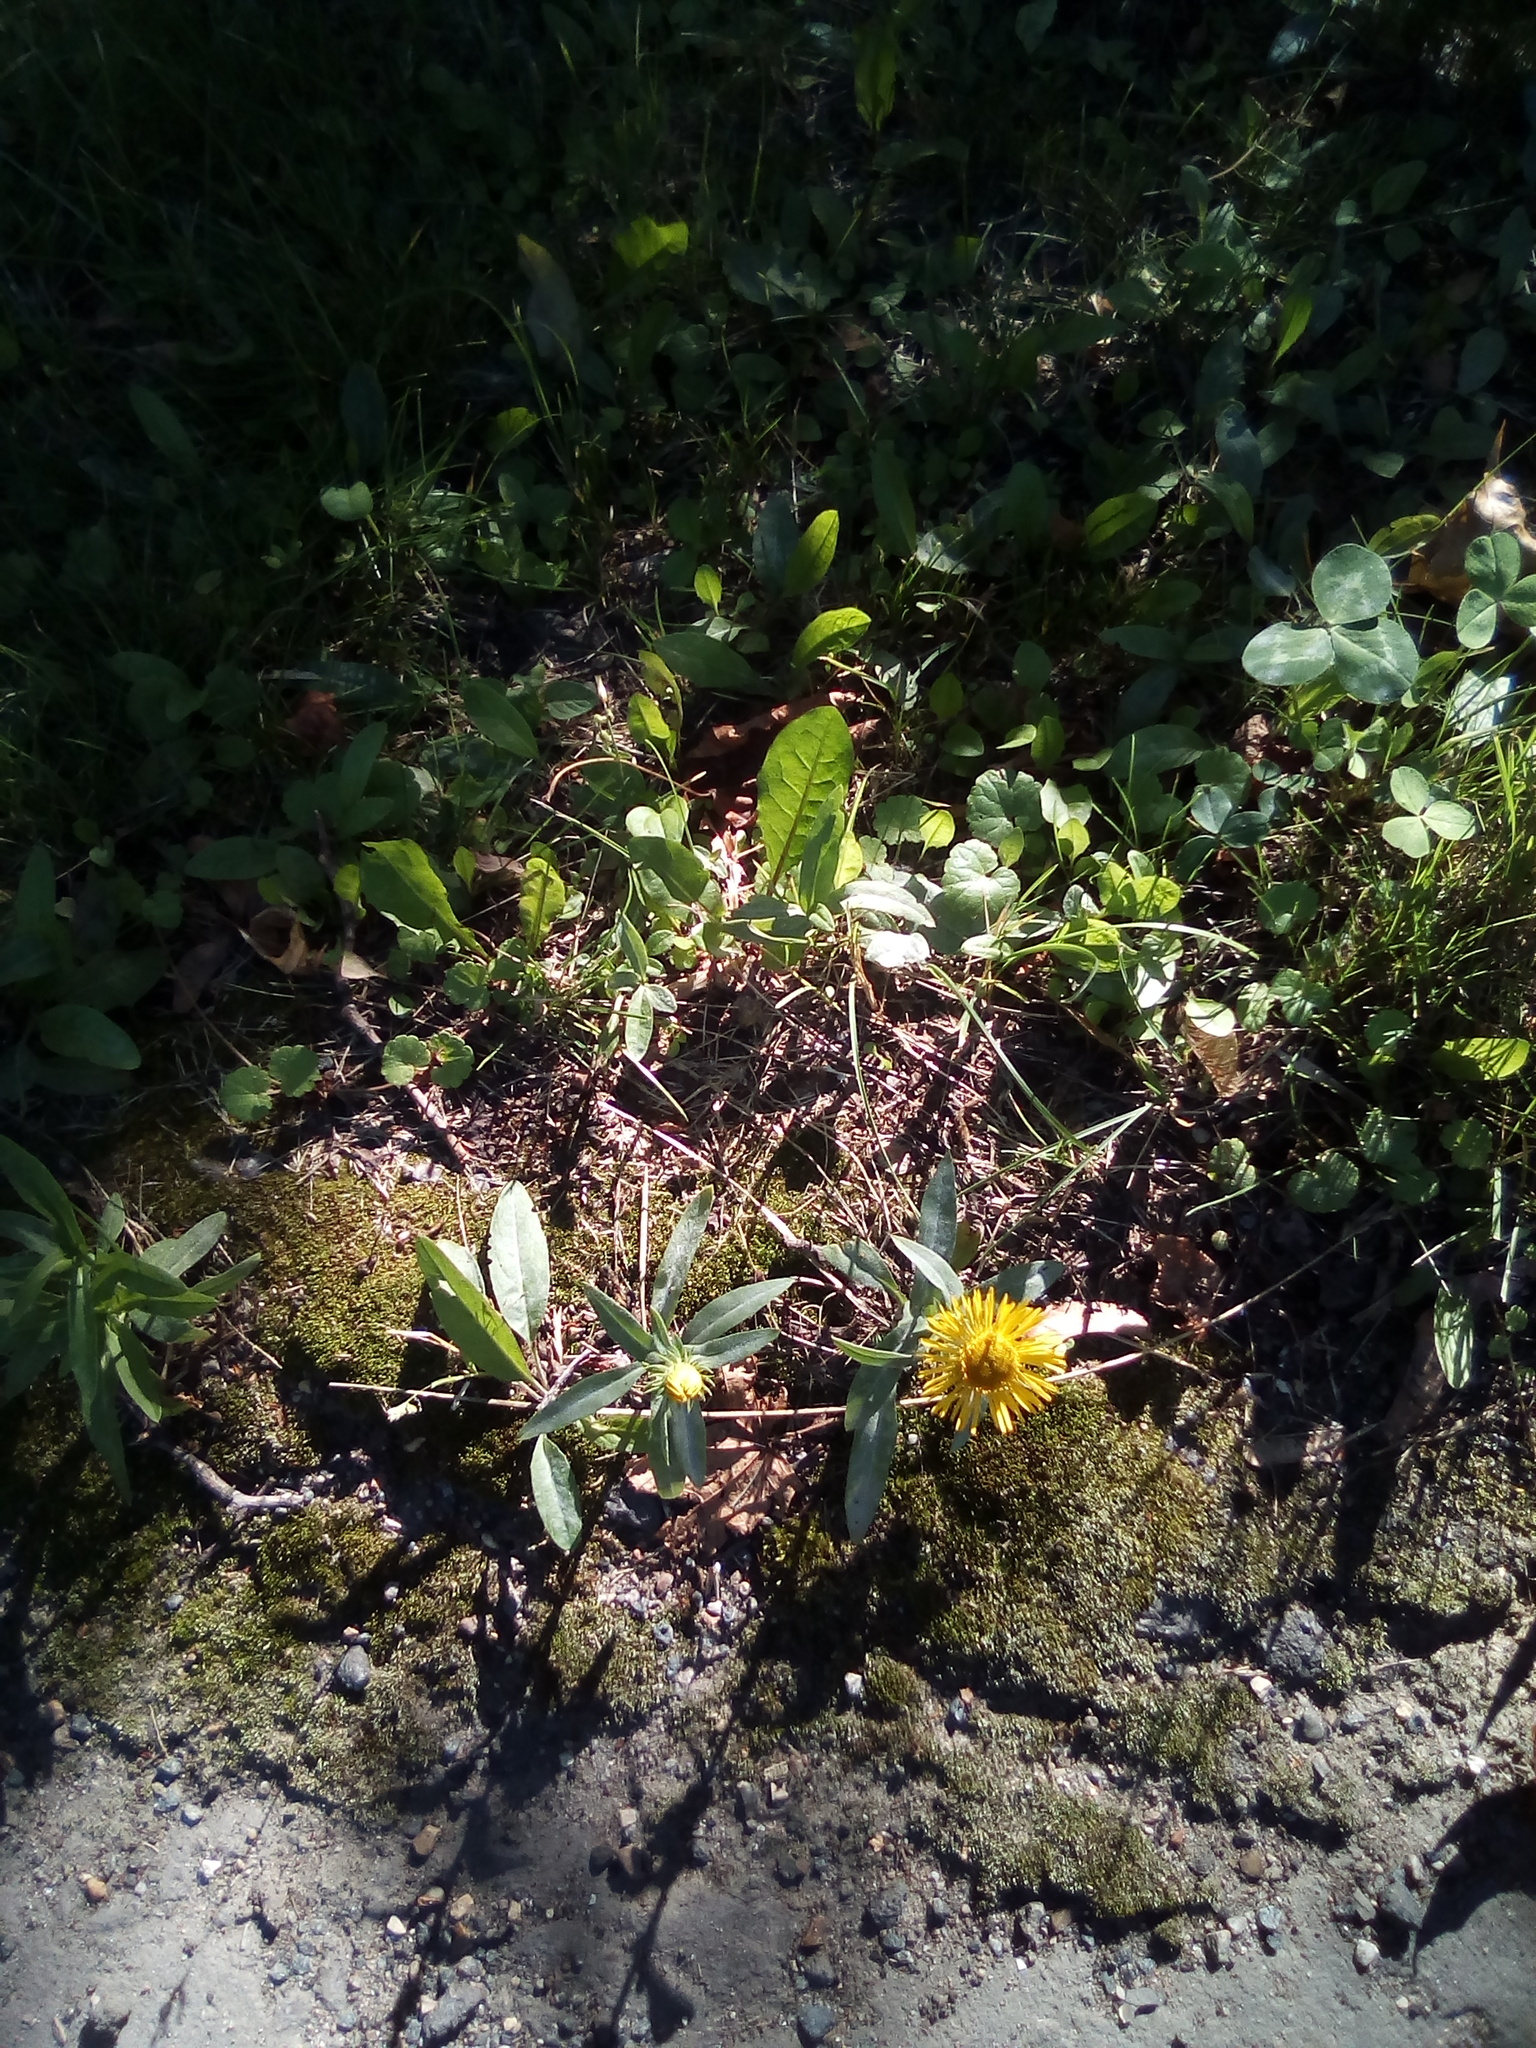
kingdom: Plantae
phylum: Tracheophyta
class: Magnoliopsida
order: Asterales
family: Asteraceae
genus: Pentanema
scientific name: Pentanema britannicum
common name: British elecampane
